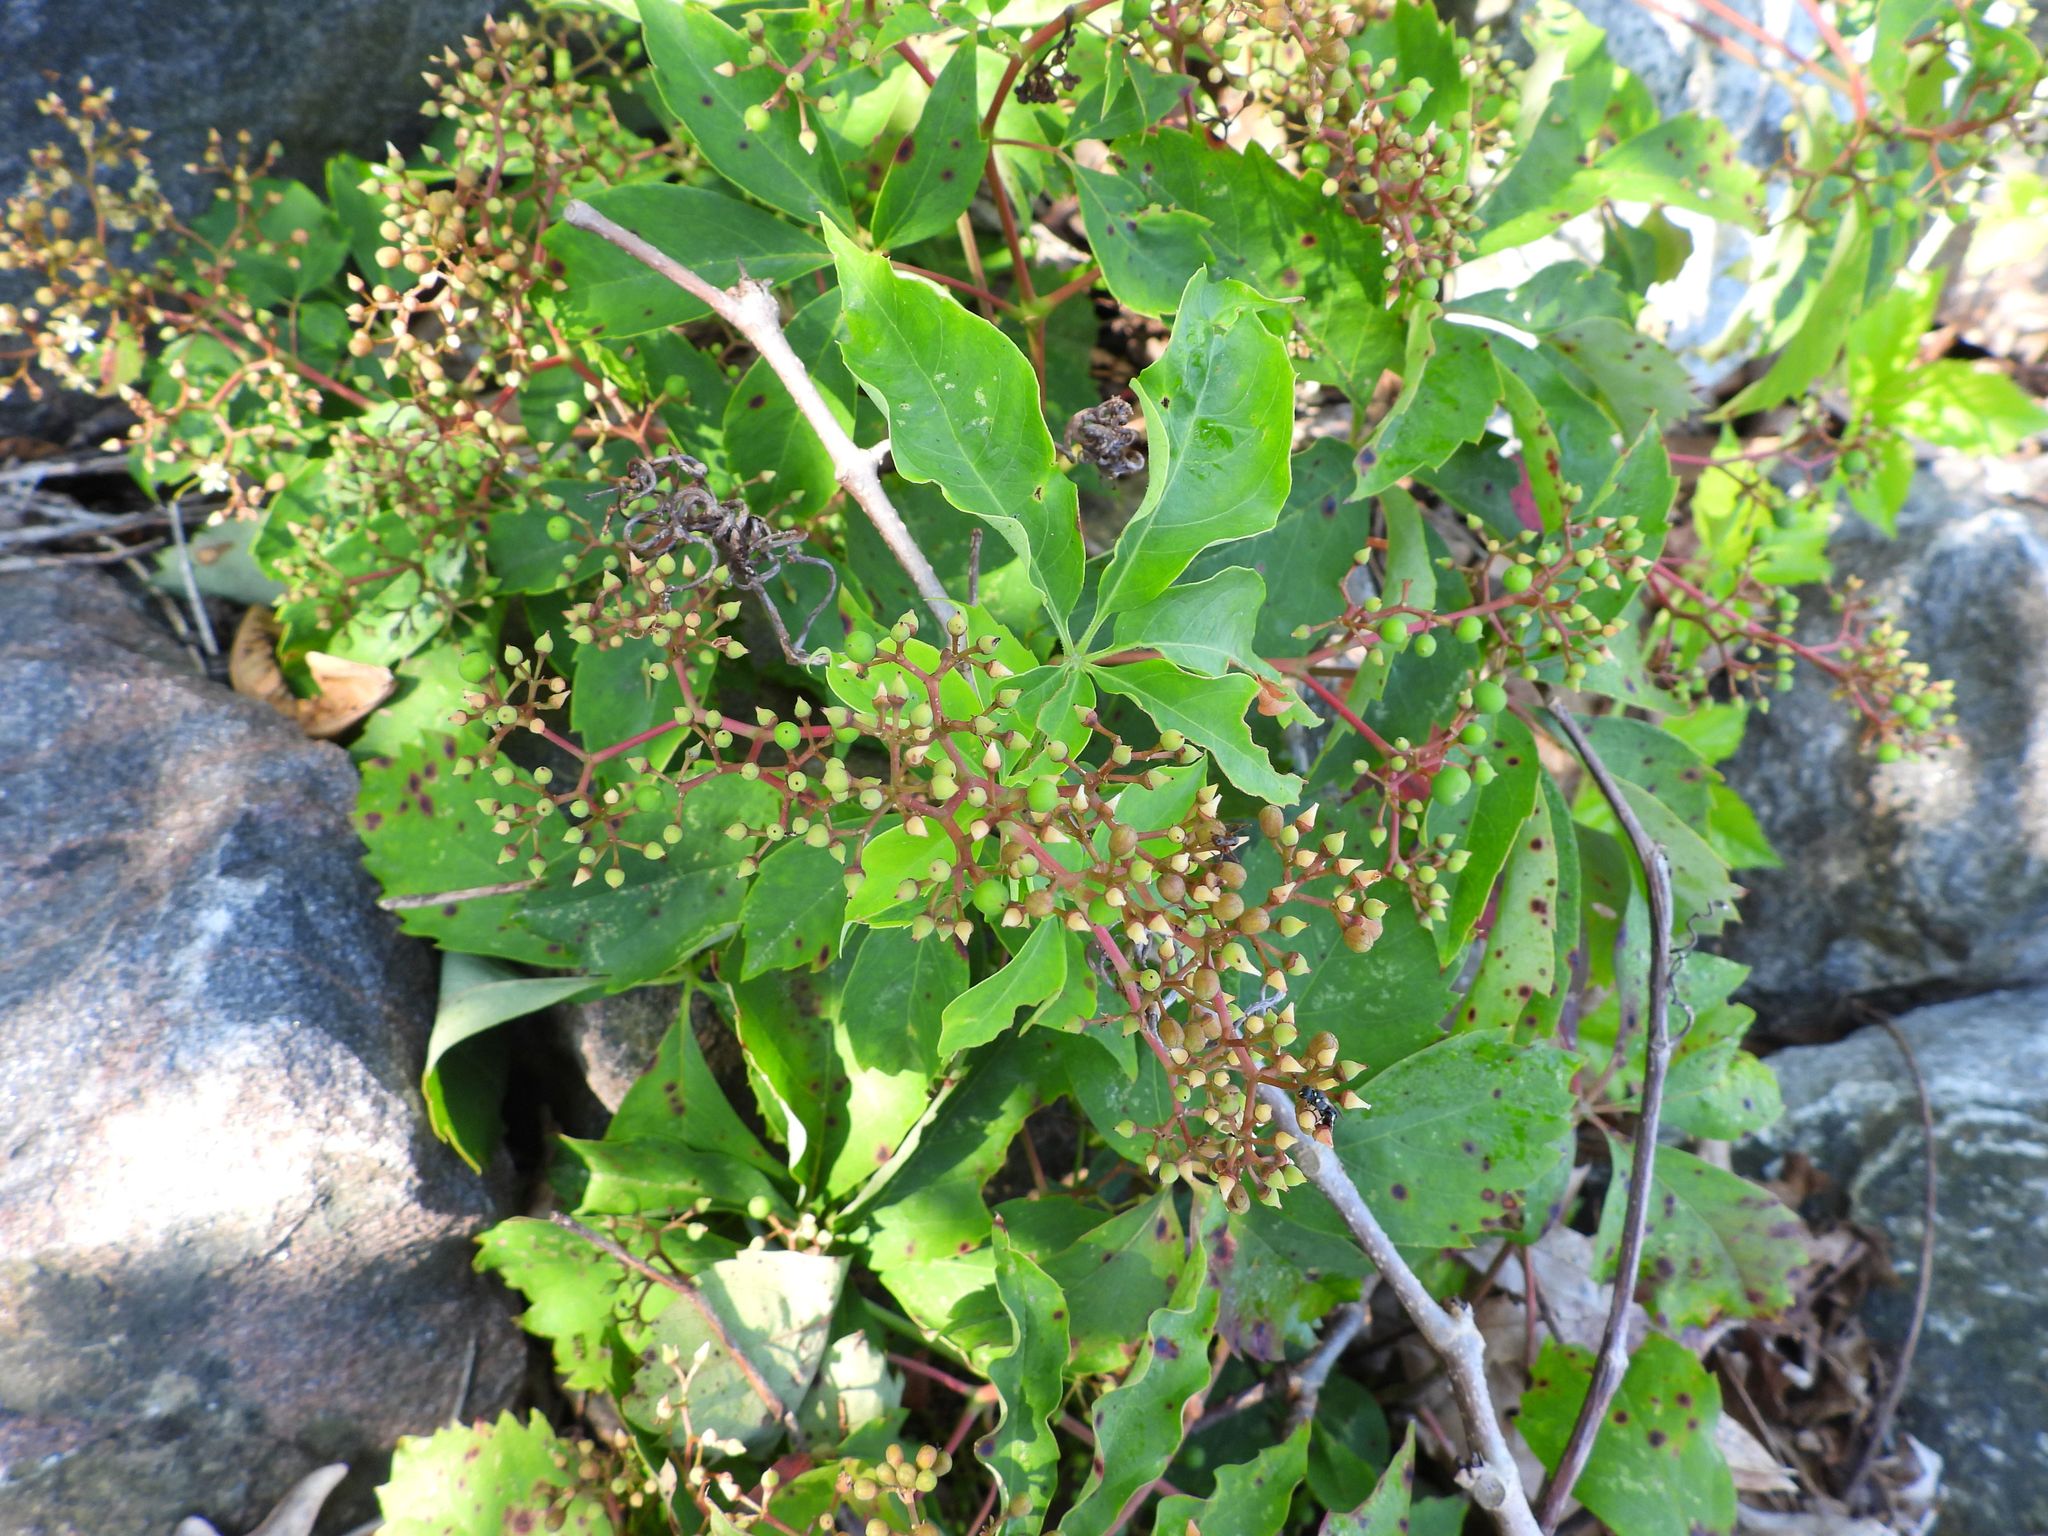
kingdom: Plantae
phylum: Tracheophyta
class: Magnoliopsida
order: Vitales
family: Vitaceae
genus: Parthenocissus
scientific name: Parthenocissus quinquefolia
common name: Virginia-creeper
